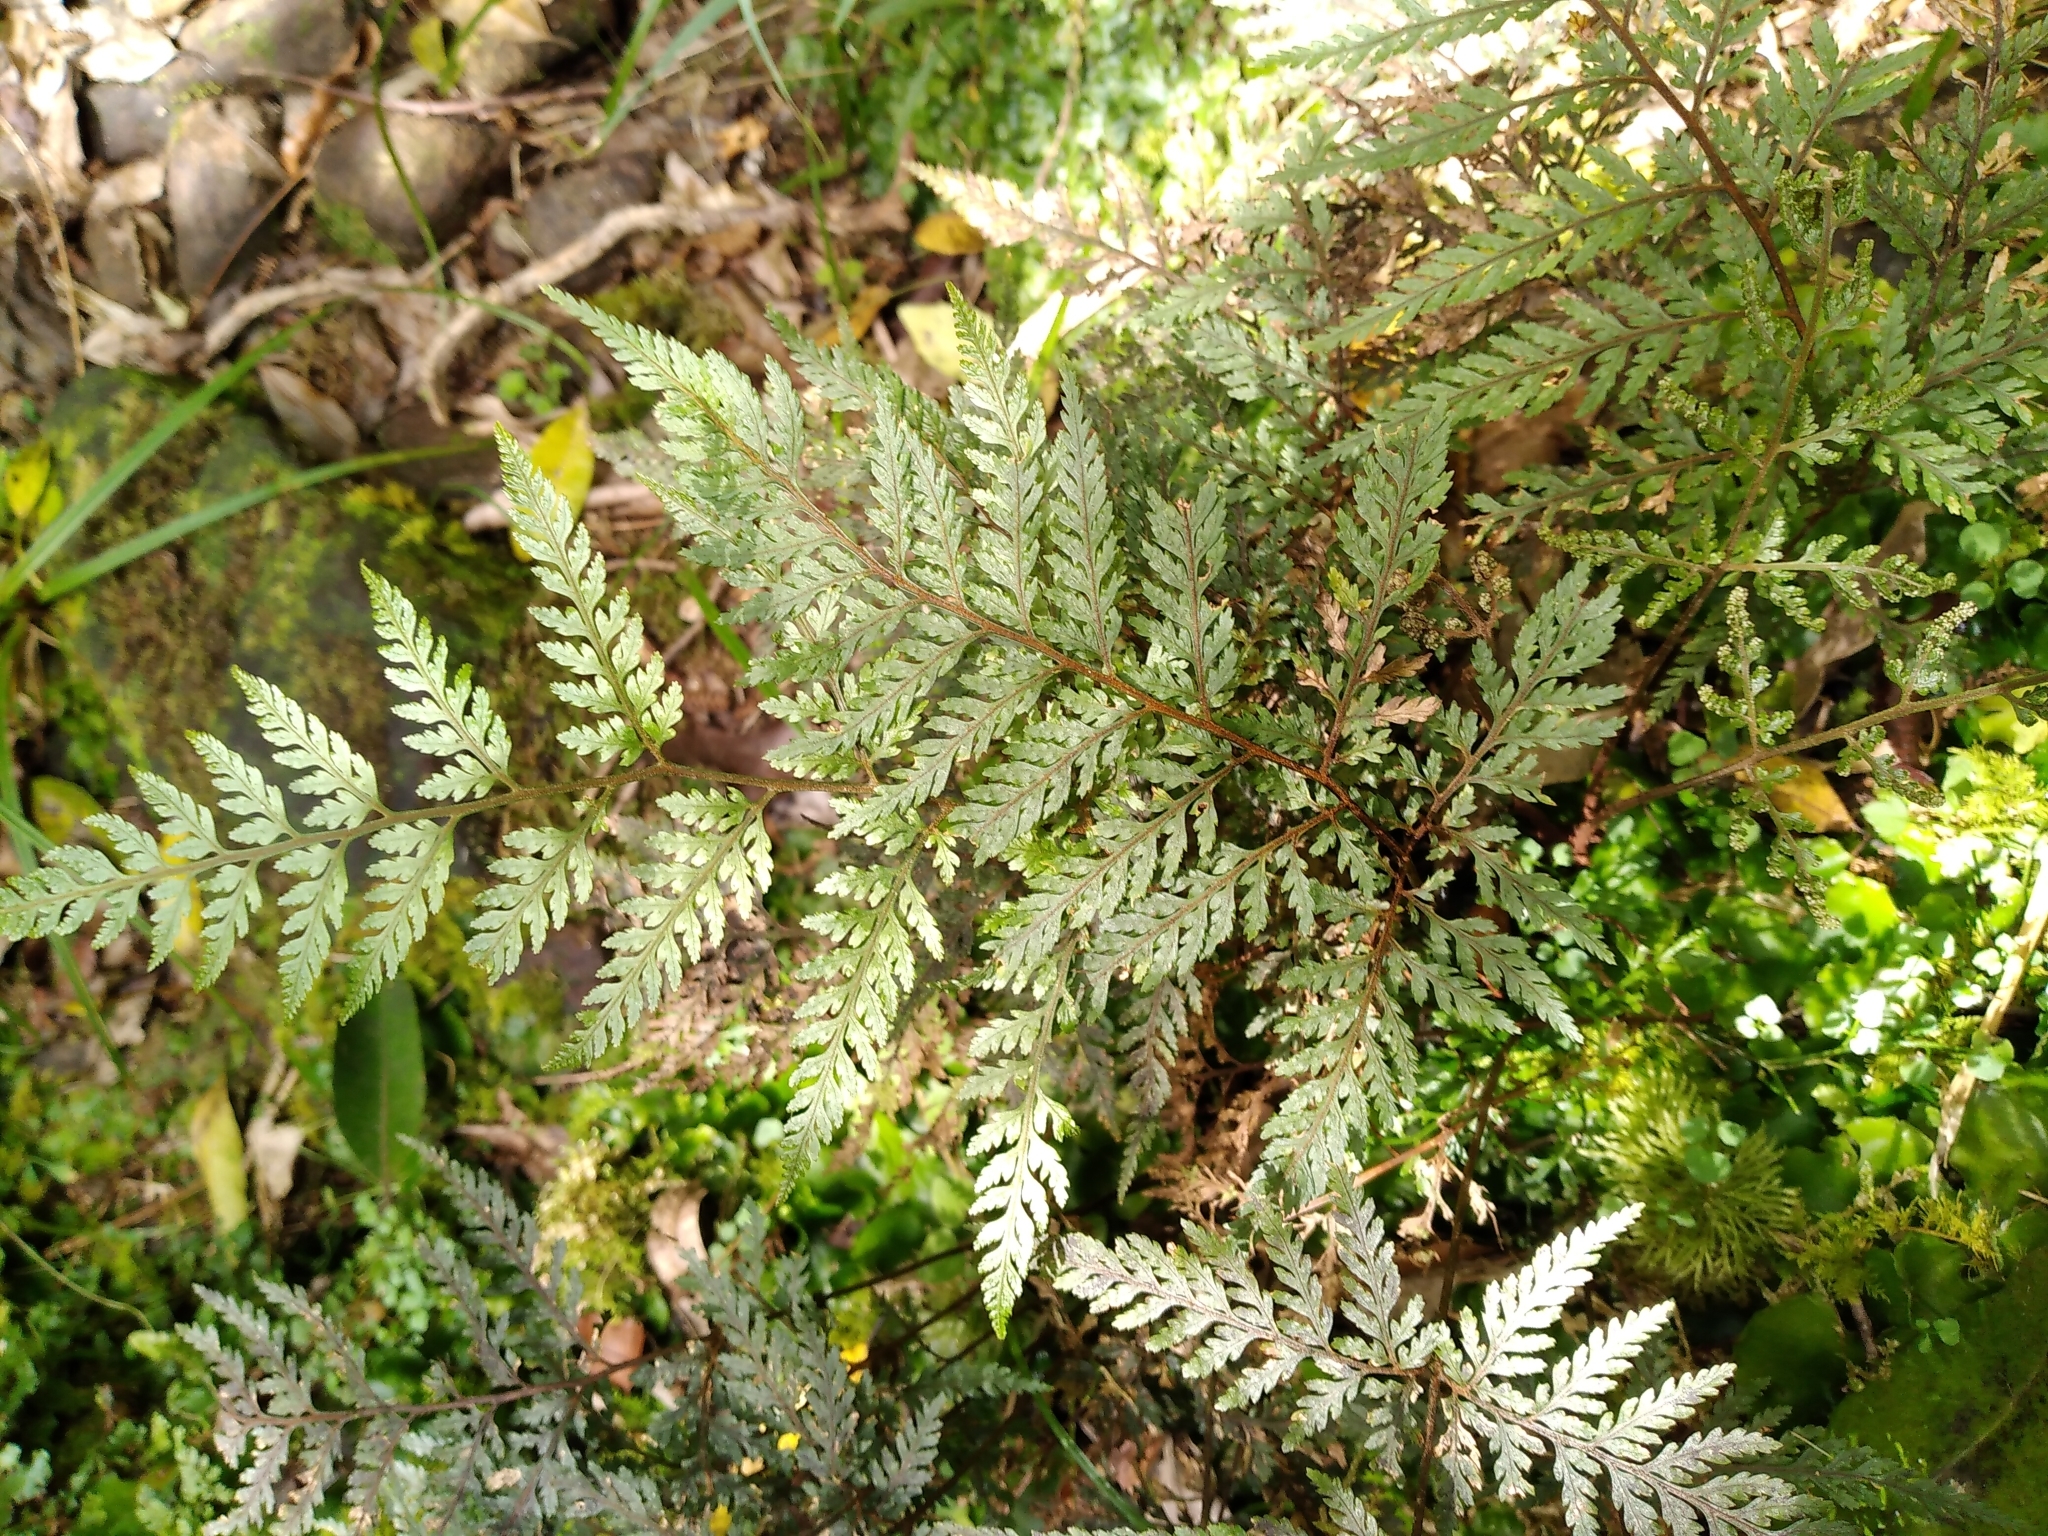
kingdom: Plantae
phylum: Tracheophyta
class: Polypodiopsida
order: Polypodiales
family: Dryopteridaceae
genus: Parapolystichum
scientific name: Parapolystichum glabellum
